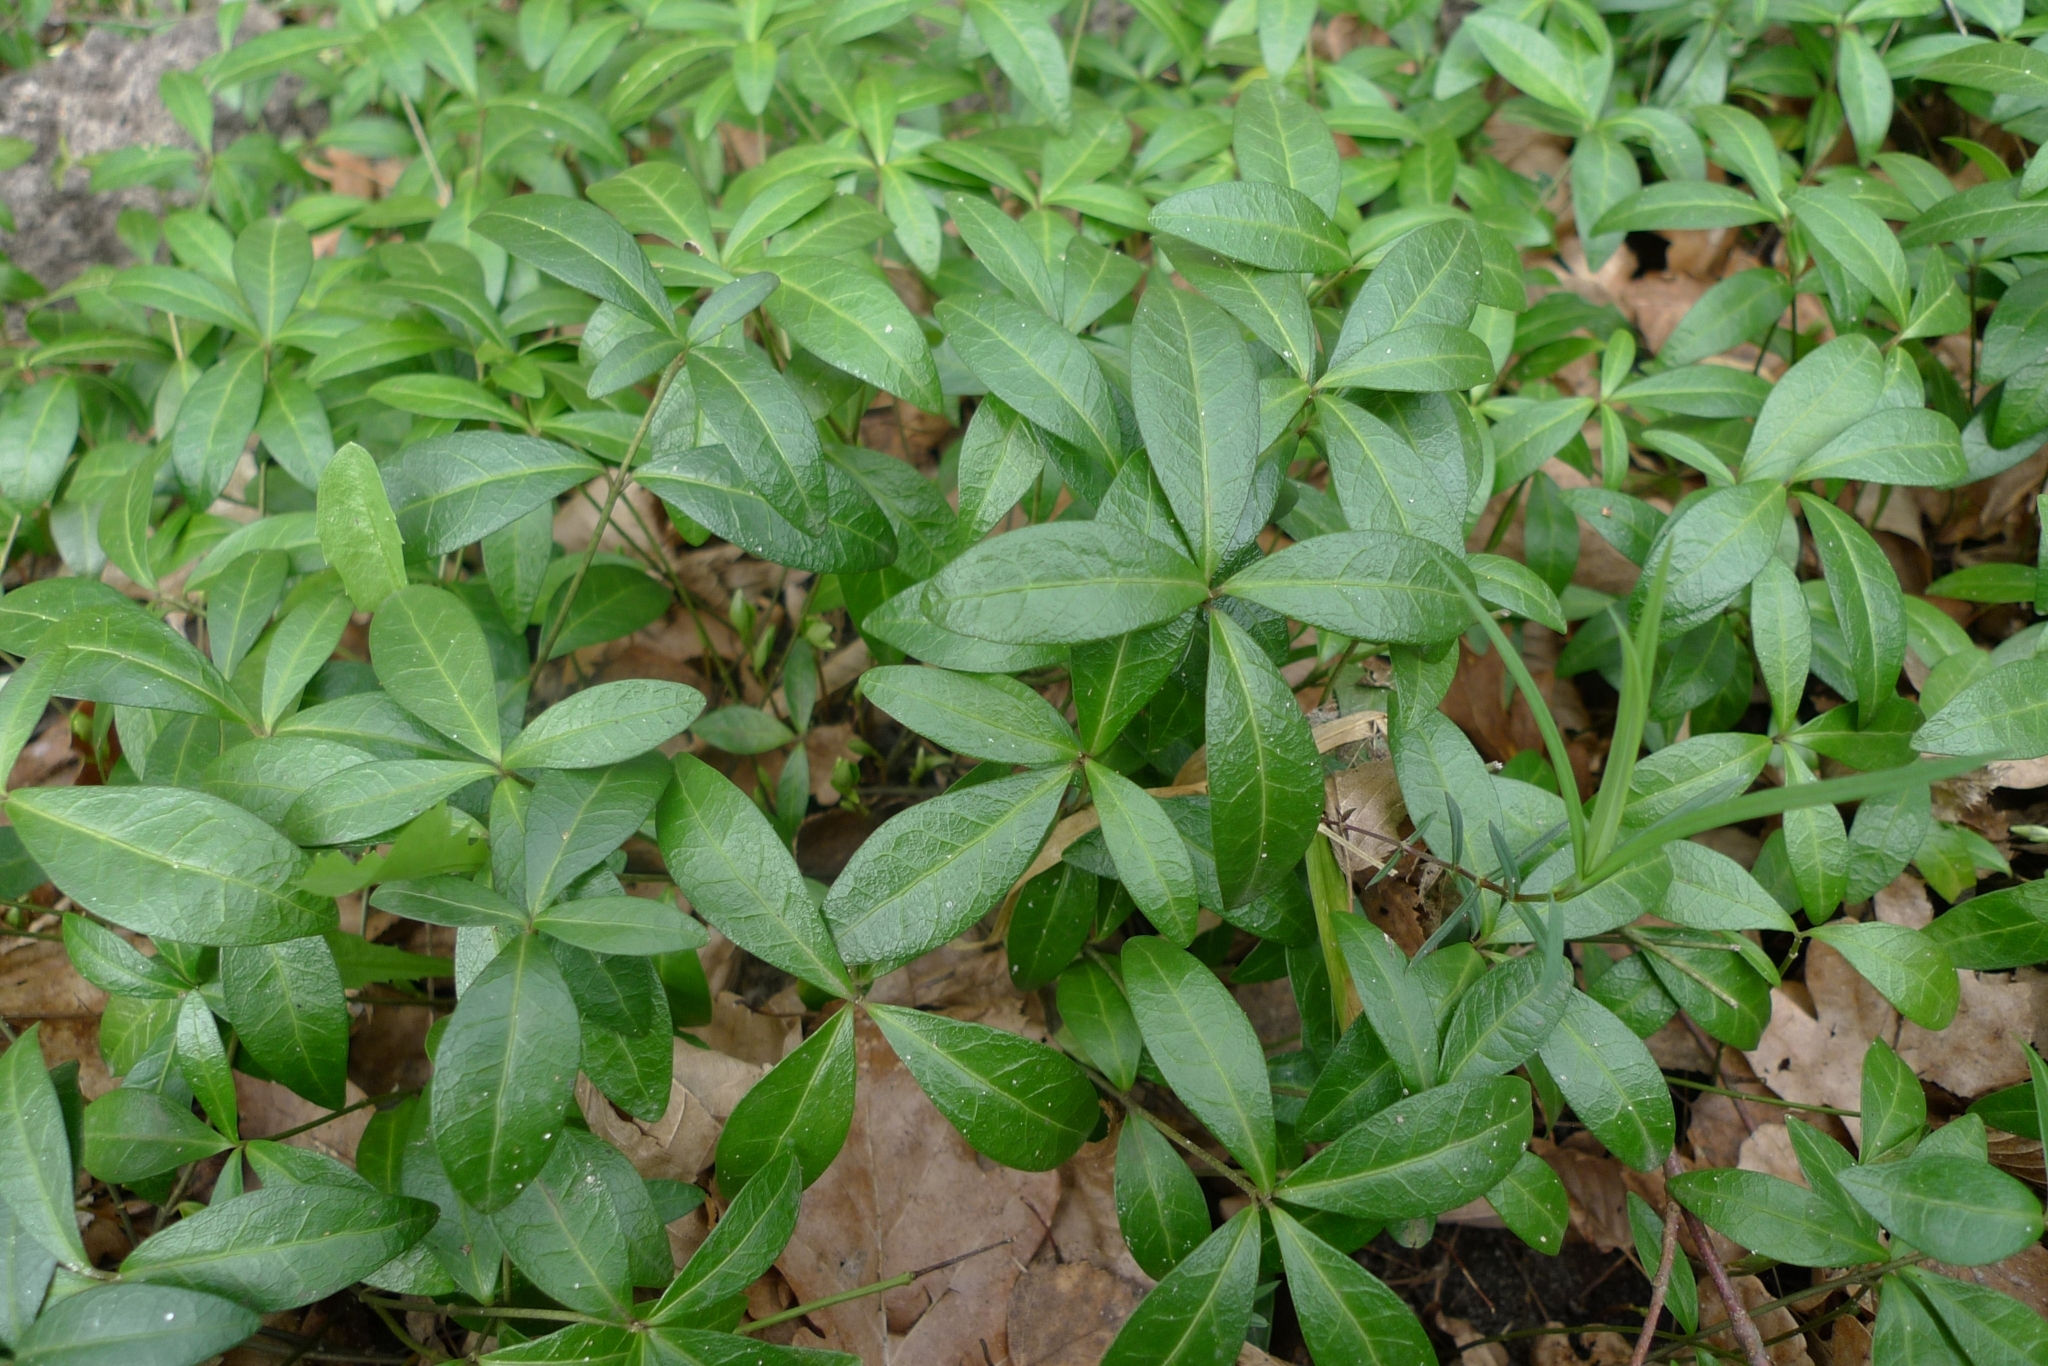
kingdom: Plantae
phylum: Tracheophyta
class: Magnoliopsida
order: Gentianales
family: Apocynaceae
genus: Vinca
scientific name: Vinca minor
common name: Lesser periwinkle
